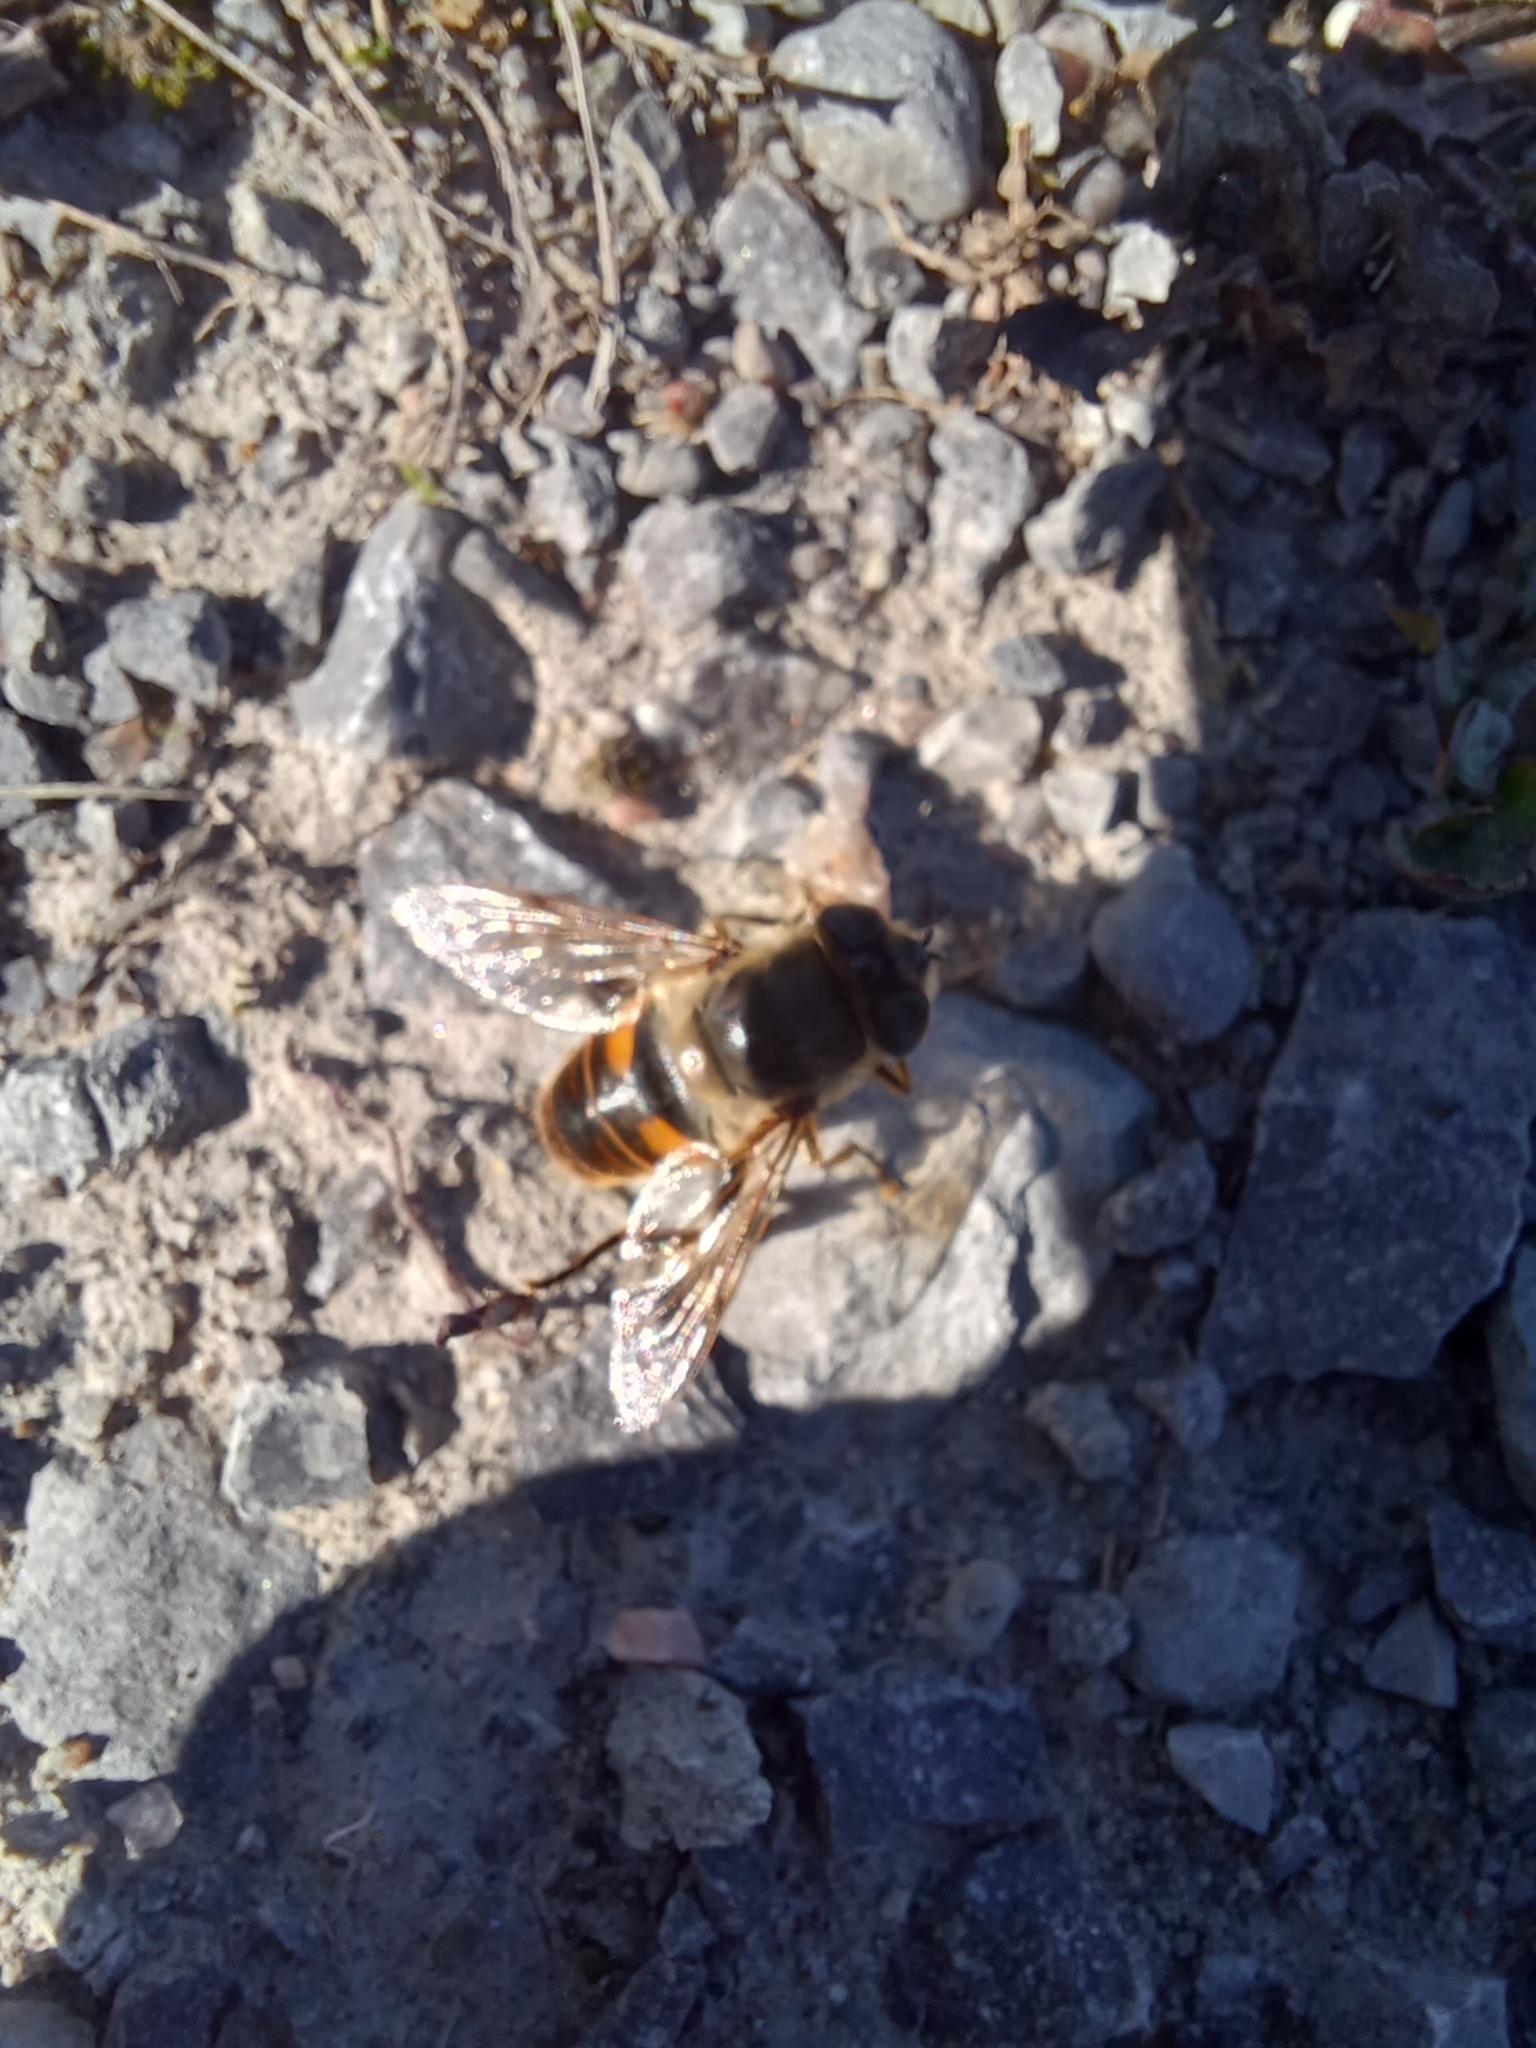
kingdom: Animalia
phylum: Arthropoda
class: Insecta
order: Diptera
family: Syrphidae
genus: Eristalis
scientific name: Eristalis tenax
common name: Drone fly
